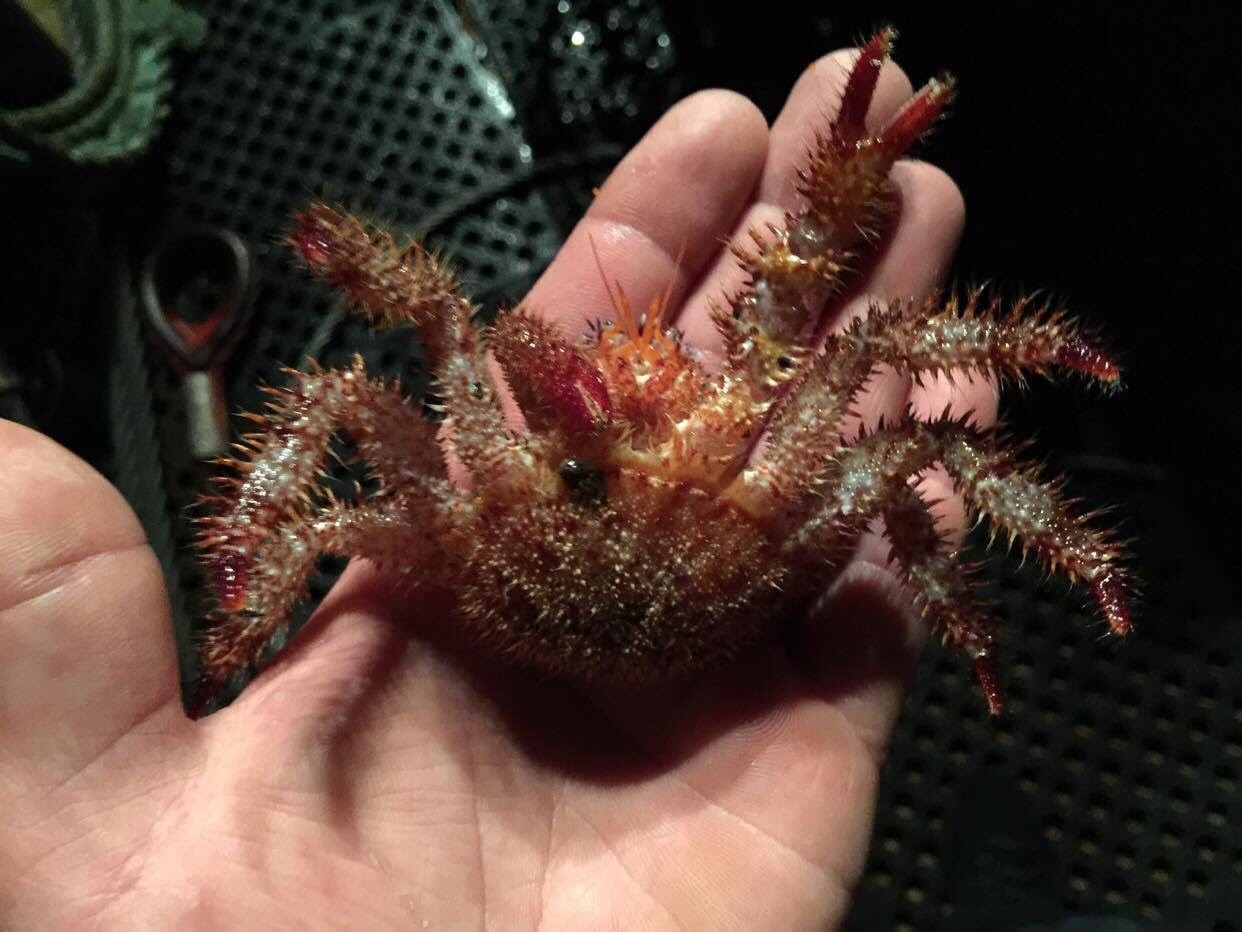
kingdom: Animalia
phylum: Arthropoda
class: Malacostraca
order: Decapoda
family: Hapalogastridae
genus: Acantholithodes
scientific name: Acantholithodes hispidus
